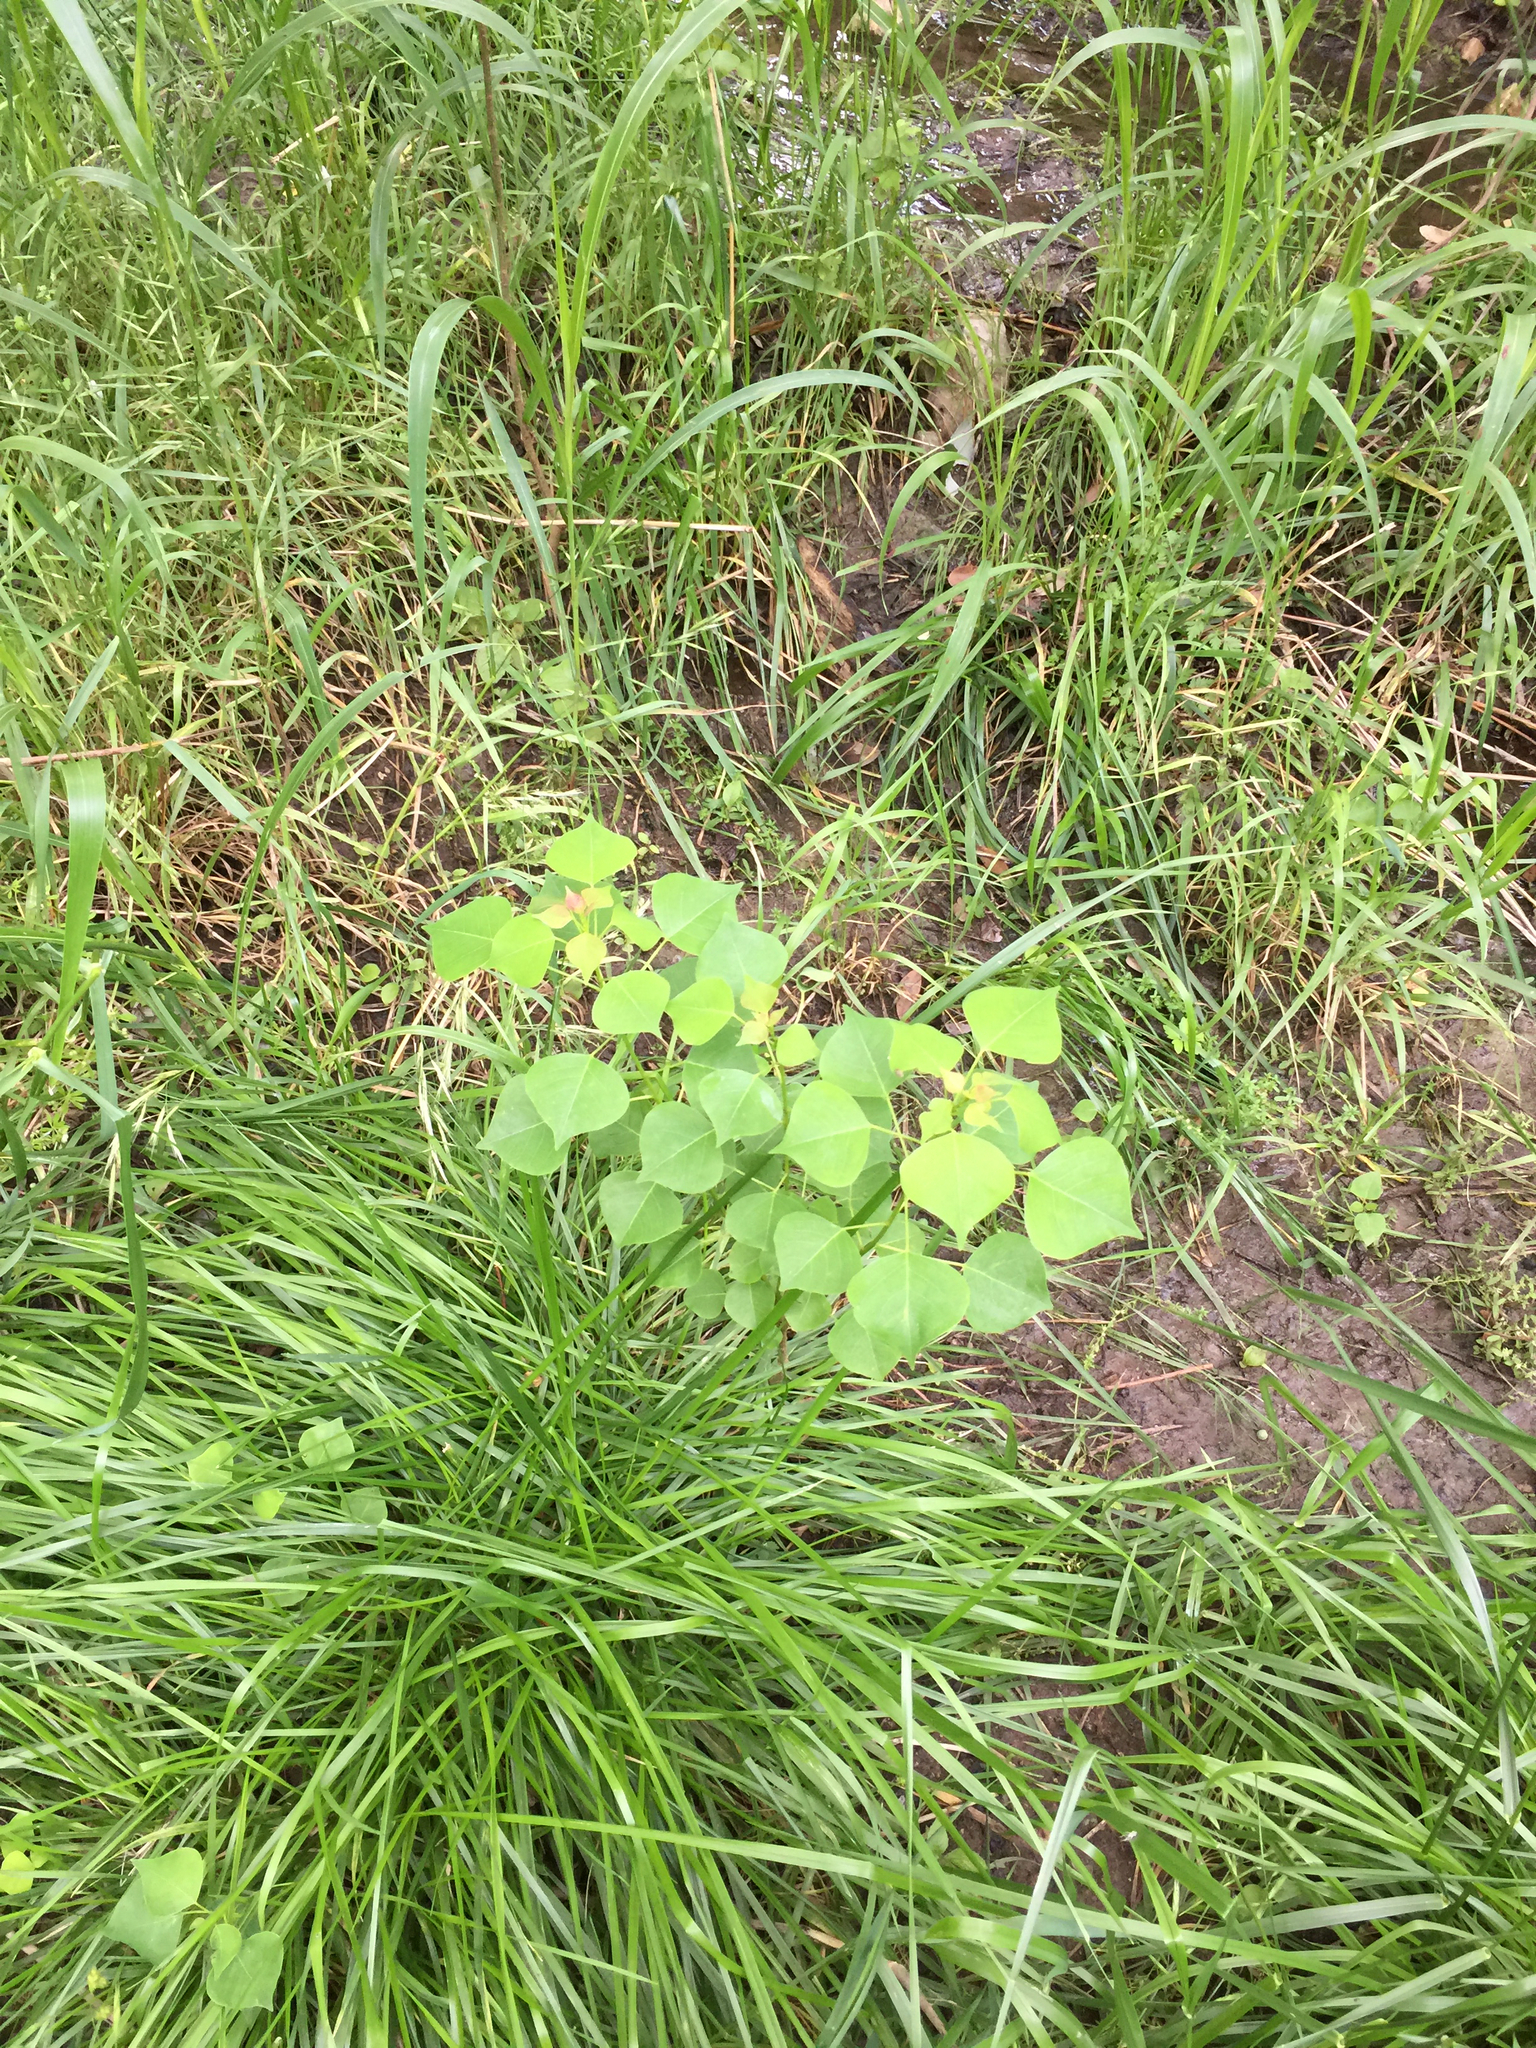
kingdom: Plantae
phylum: Tracheophyta
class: Magnoliopsida
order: Malpighiales
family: Euphorbiaceae
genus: Triadica
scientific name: Triadica sebifera
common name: Chinese tallow
